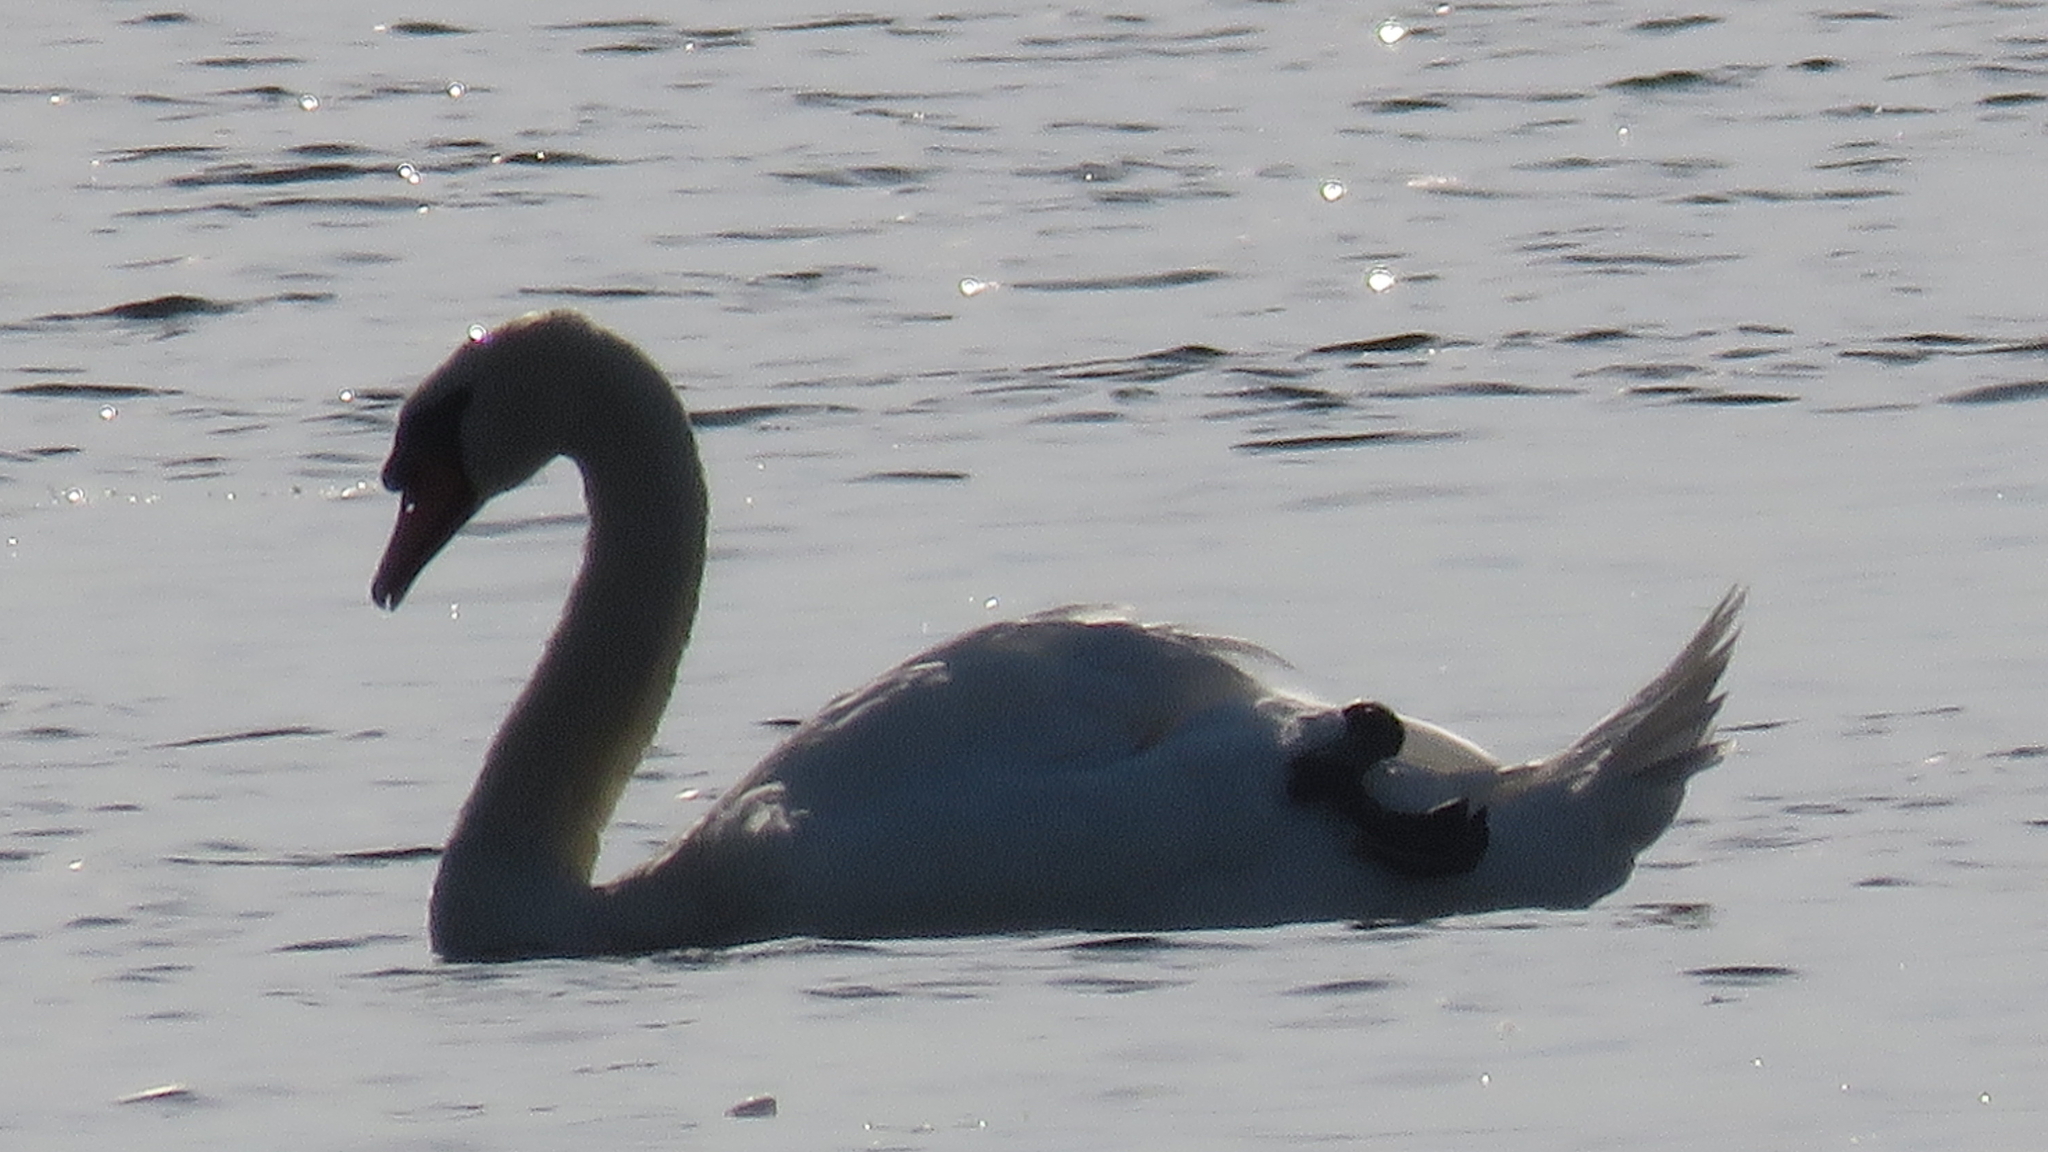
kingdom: Animalia
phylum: Chordata
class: Aves
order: Anseriformes
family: Anatidae
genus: Cygnus
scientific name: Cygnus olor
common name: Mute swan
